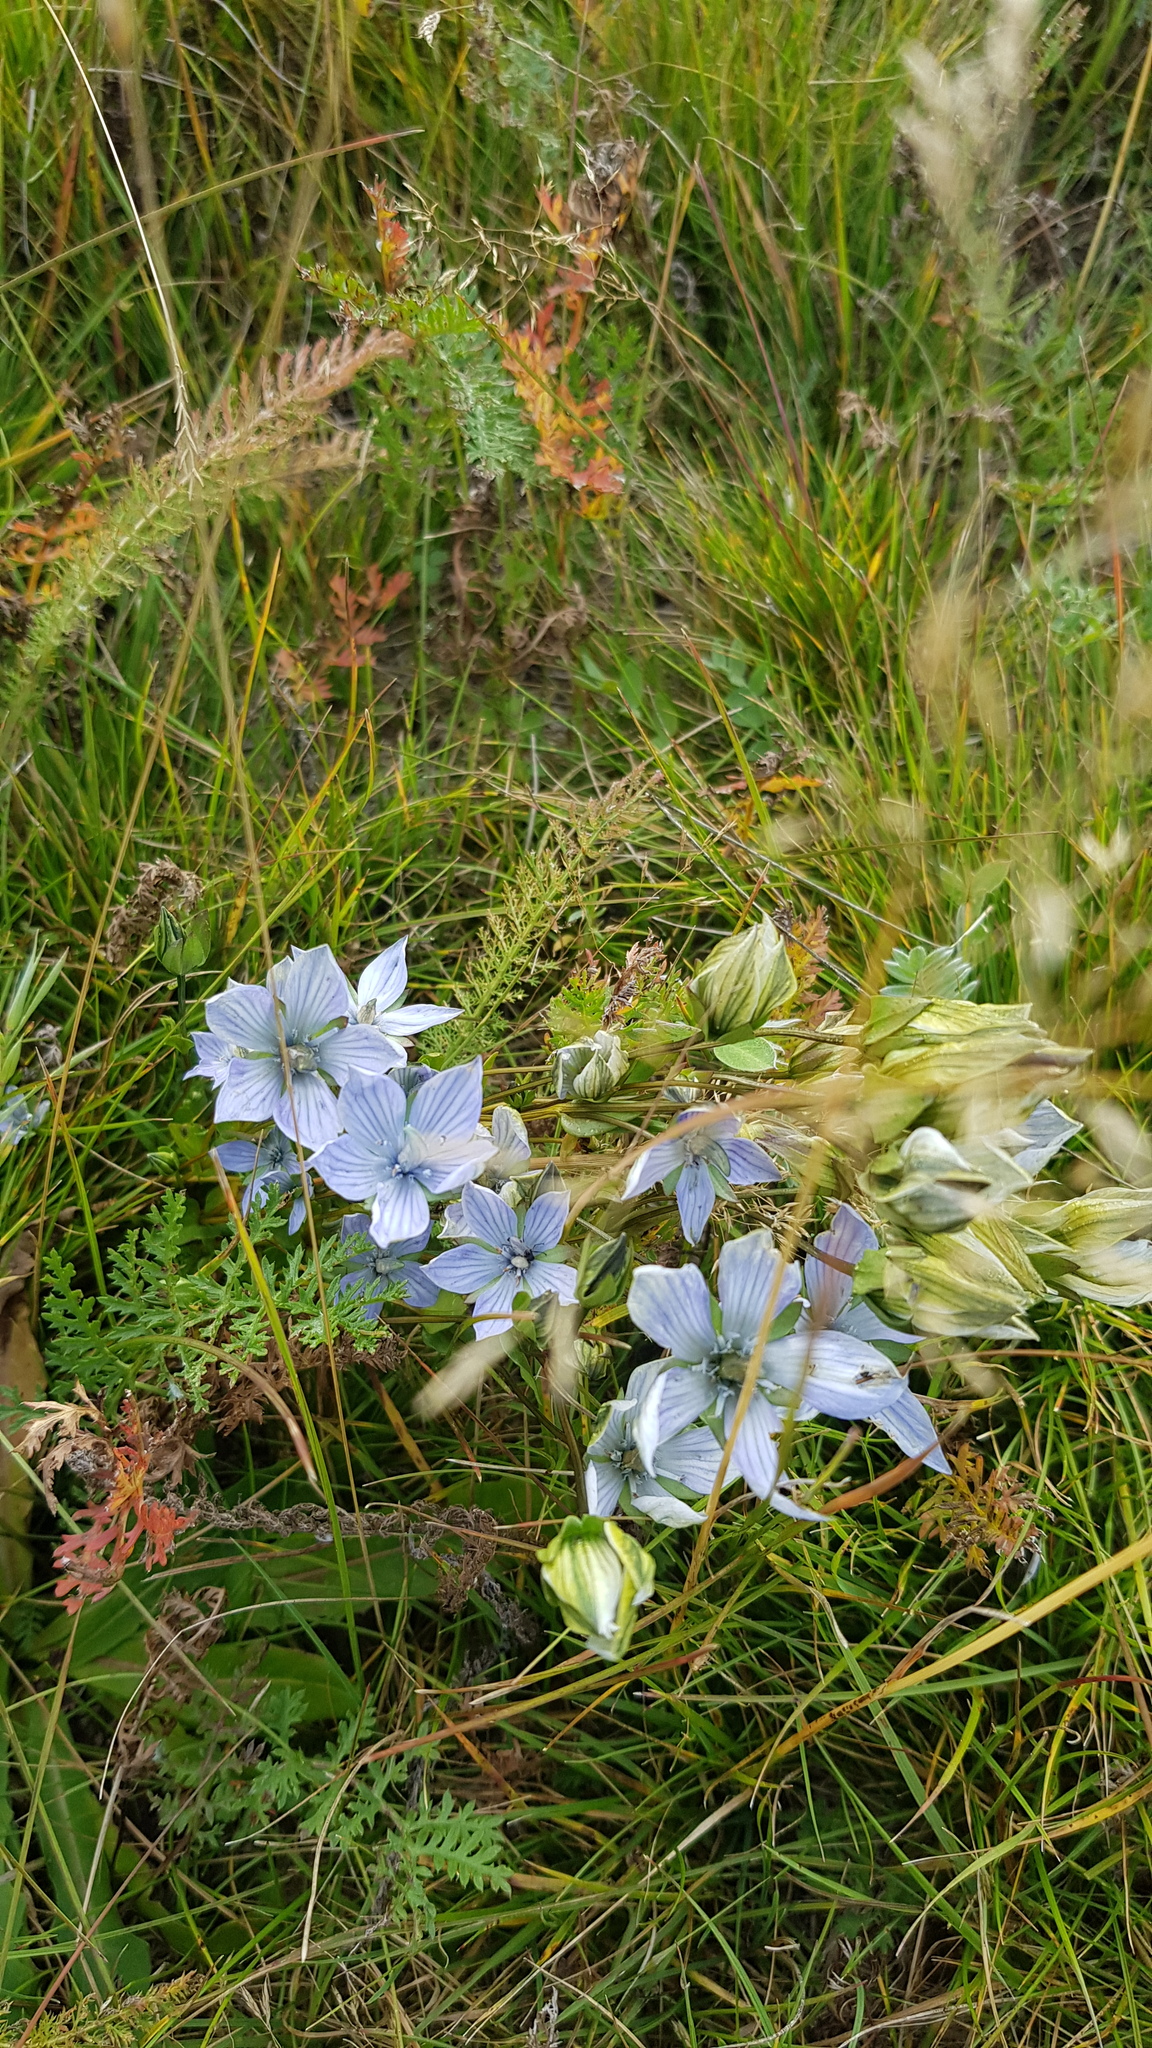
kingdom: Plantae
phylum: Tracheophyta
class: Magnoliopsida
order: Gentianales
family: Gentianaceae
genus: Lomatogonium
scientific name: Lomatogonium carinthiacum
